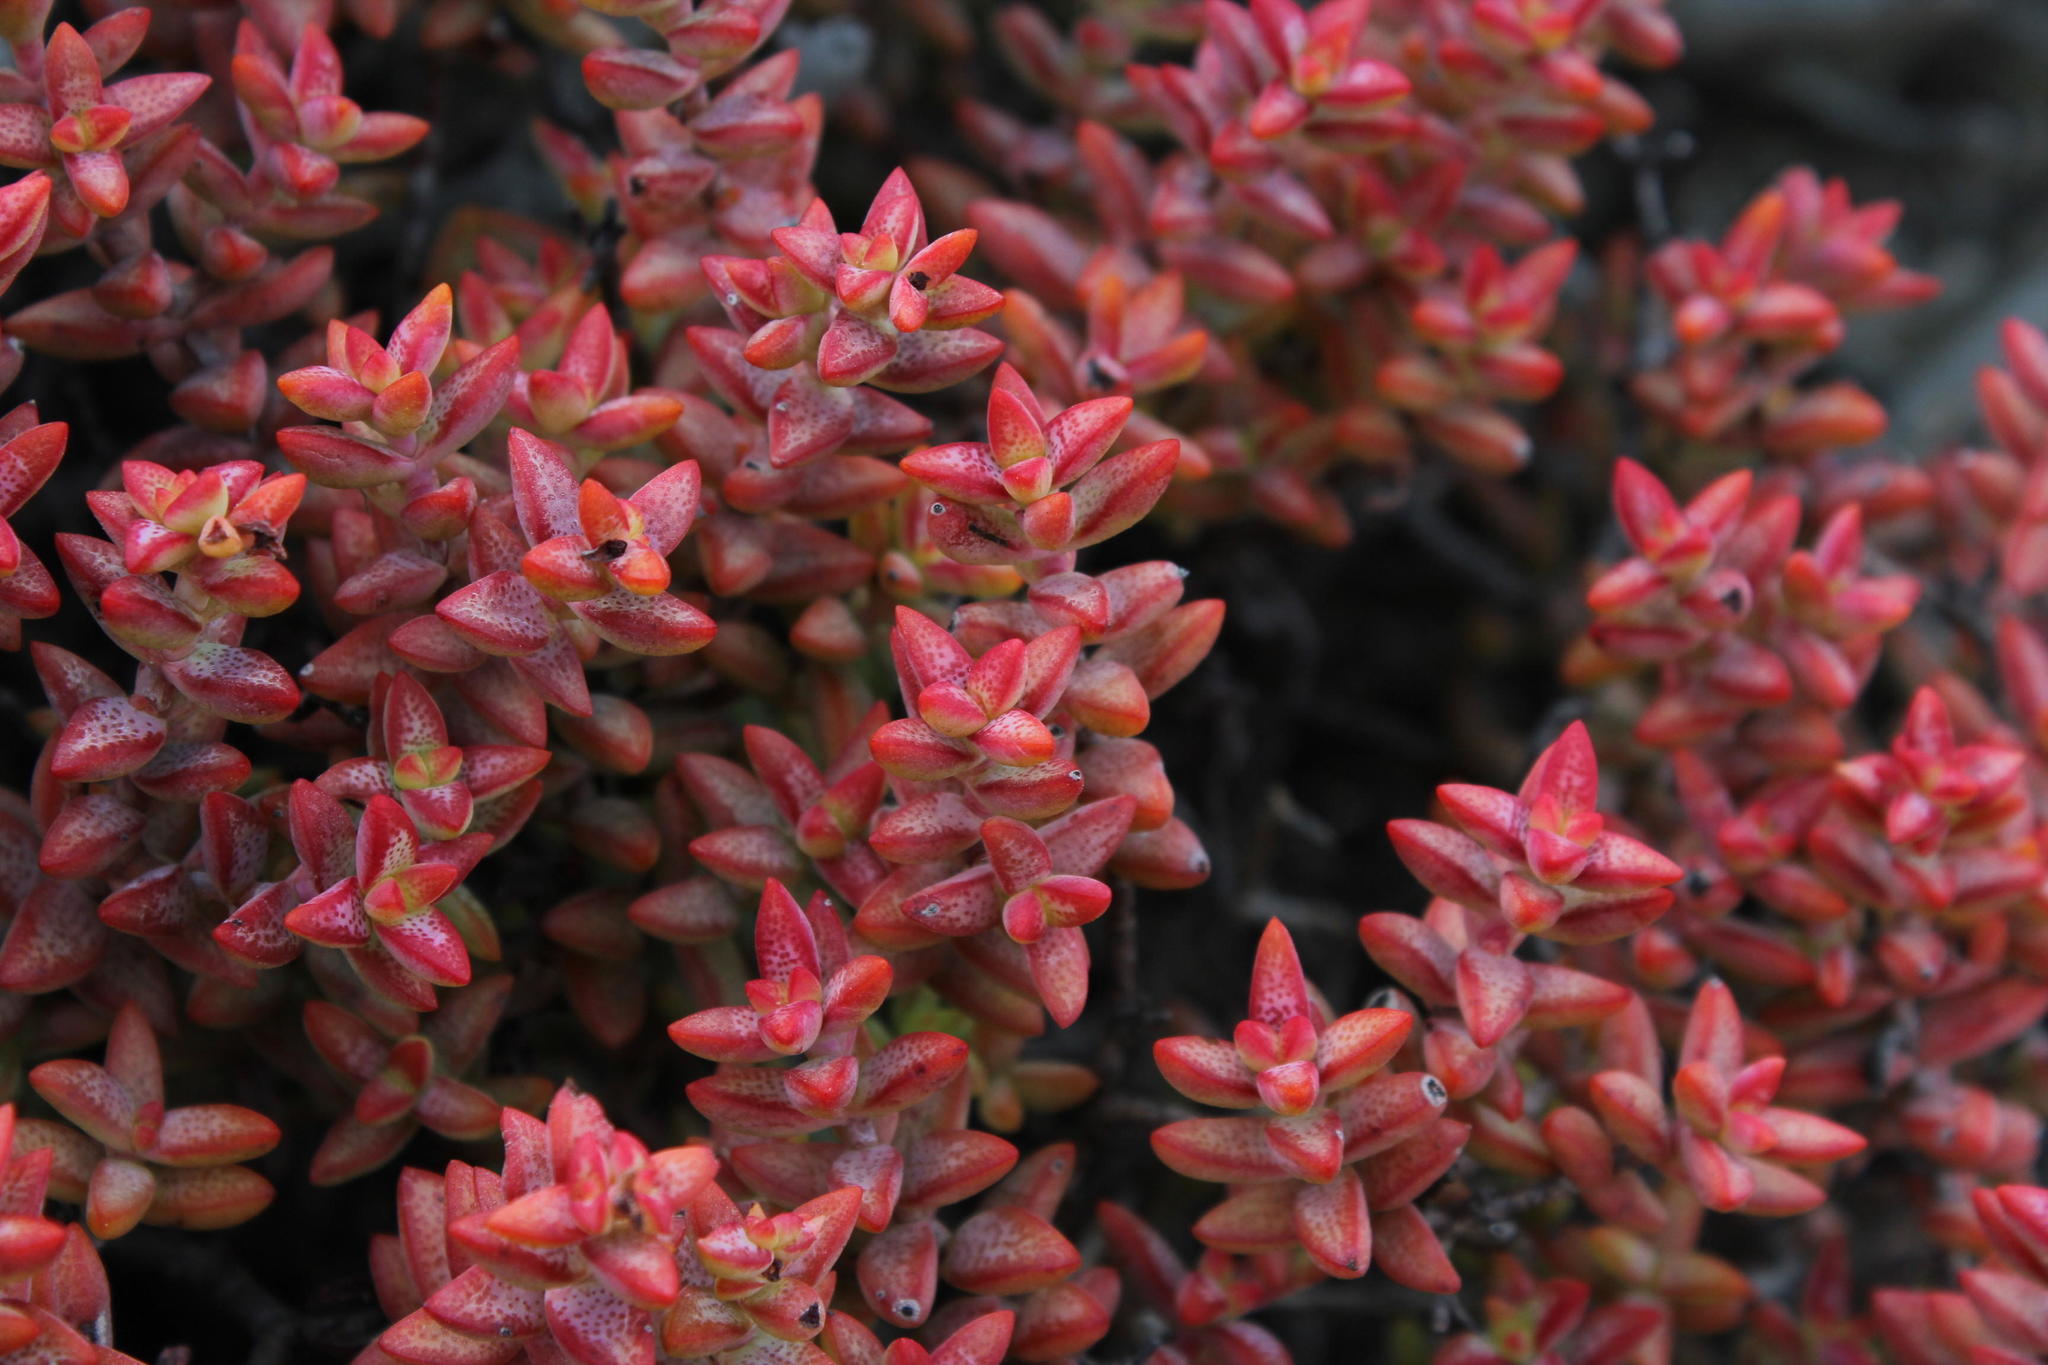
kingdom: Plantae
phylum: Tracheophyta
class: Magnoliopsida
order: Saxifragales
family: Crassulaceae
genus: Crassula
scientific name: Crassula rupestris
